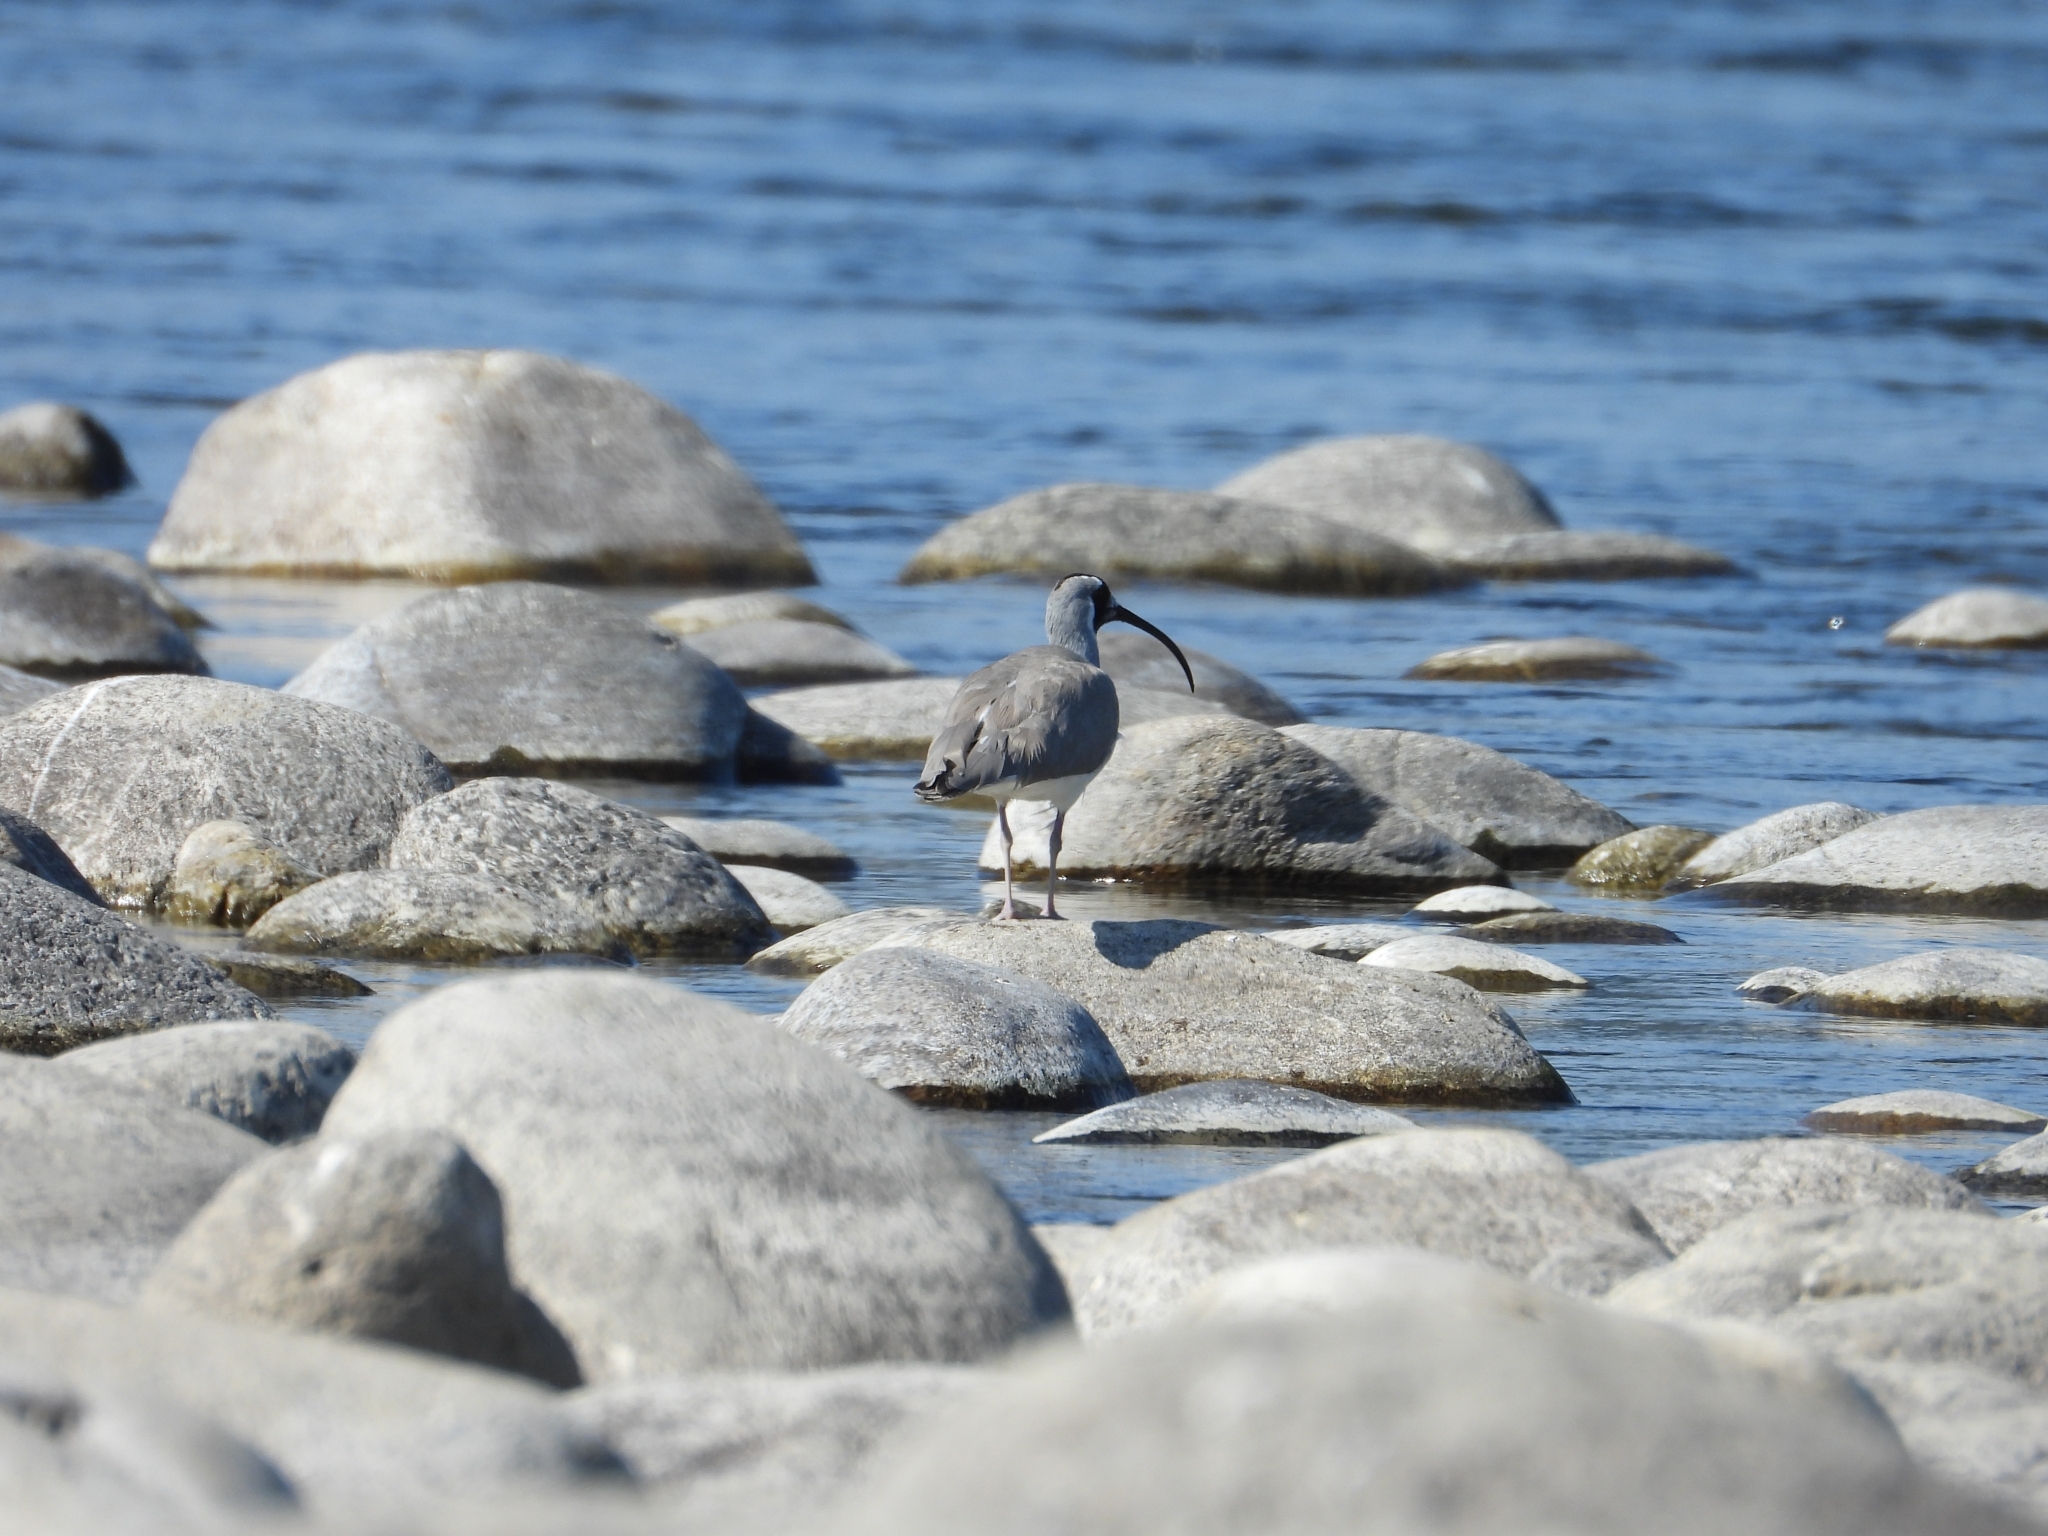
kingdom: Animalia
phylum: Chordata
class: Aves
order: Charadriiformes
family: Ibidorhynchidae
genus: Ibidorhyncha
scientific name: Ibidorhyncha struthersii
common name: Ibisbill
